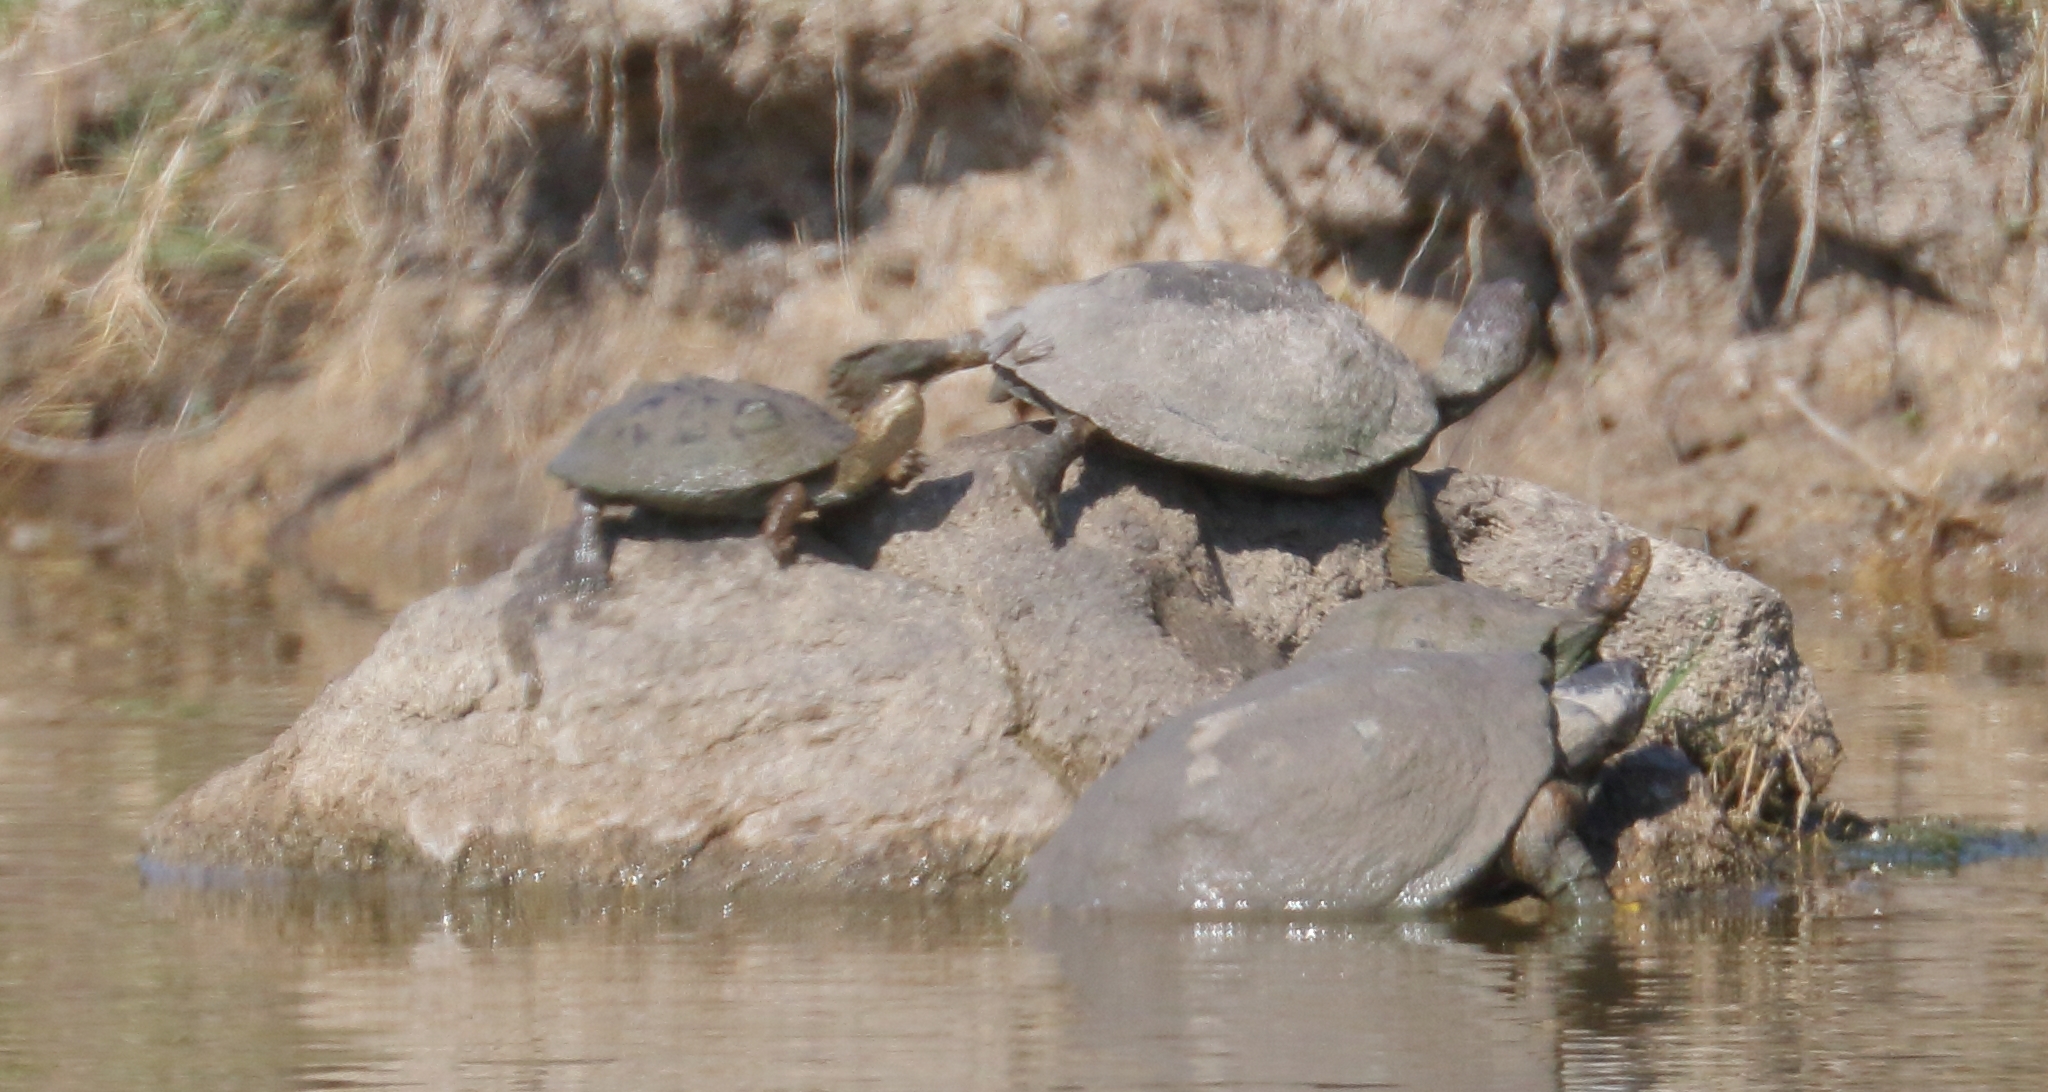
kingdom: Animalia
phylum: Chordata
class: Testudines
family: Pelomedusidae
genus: Pelusios
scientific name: Pelusios sinuatus
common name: Serrated hinged terrapin
